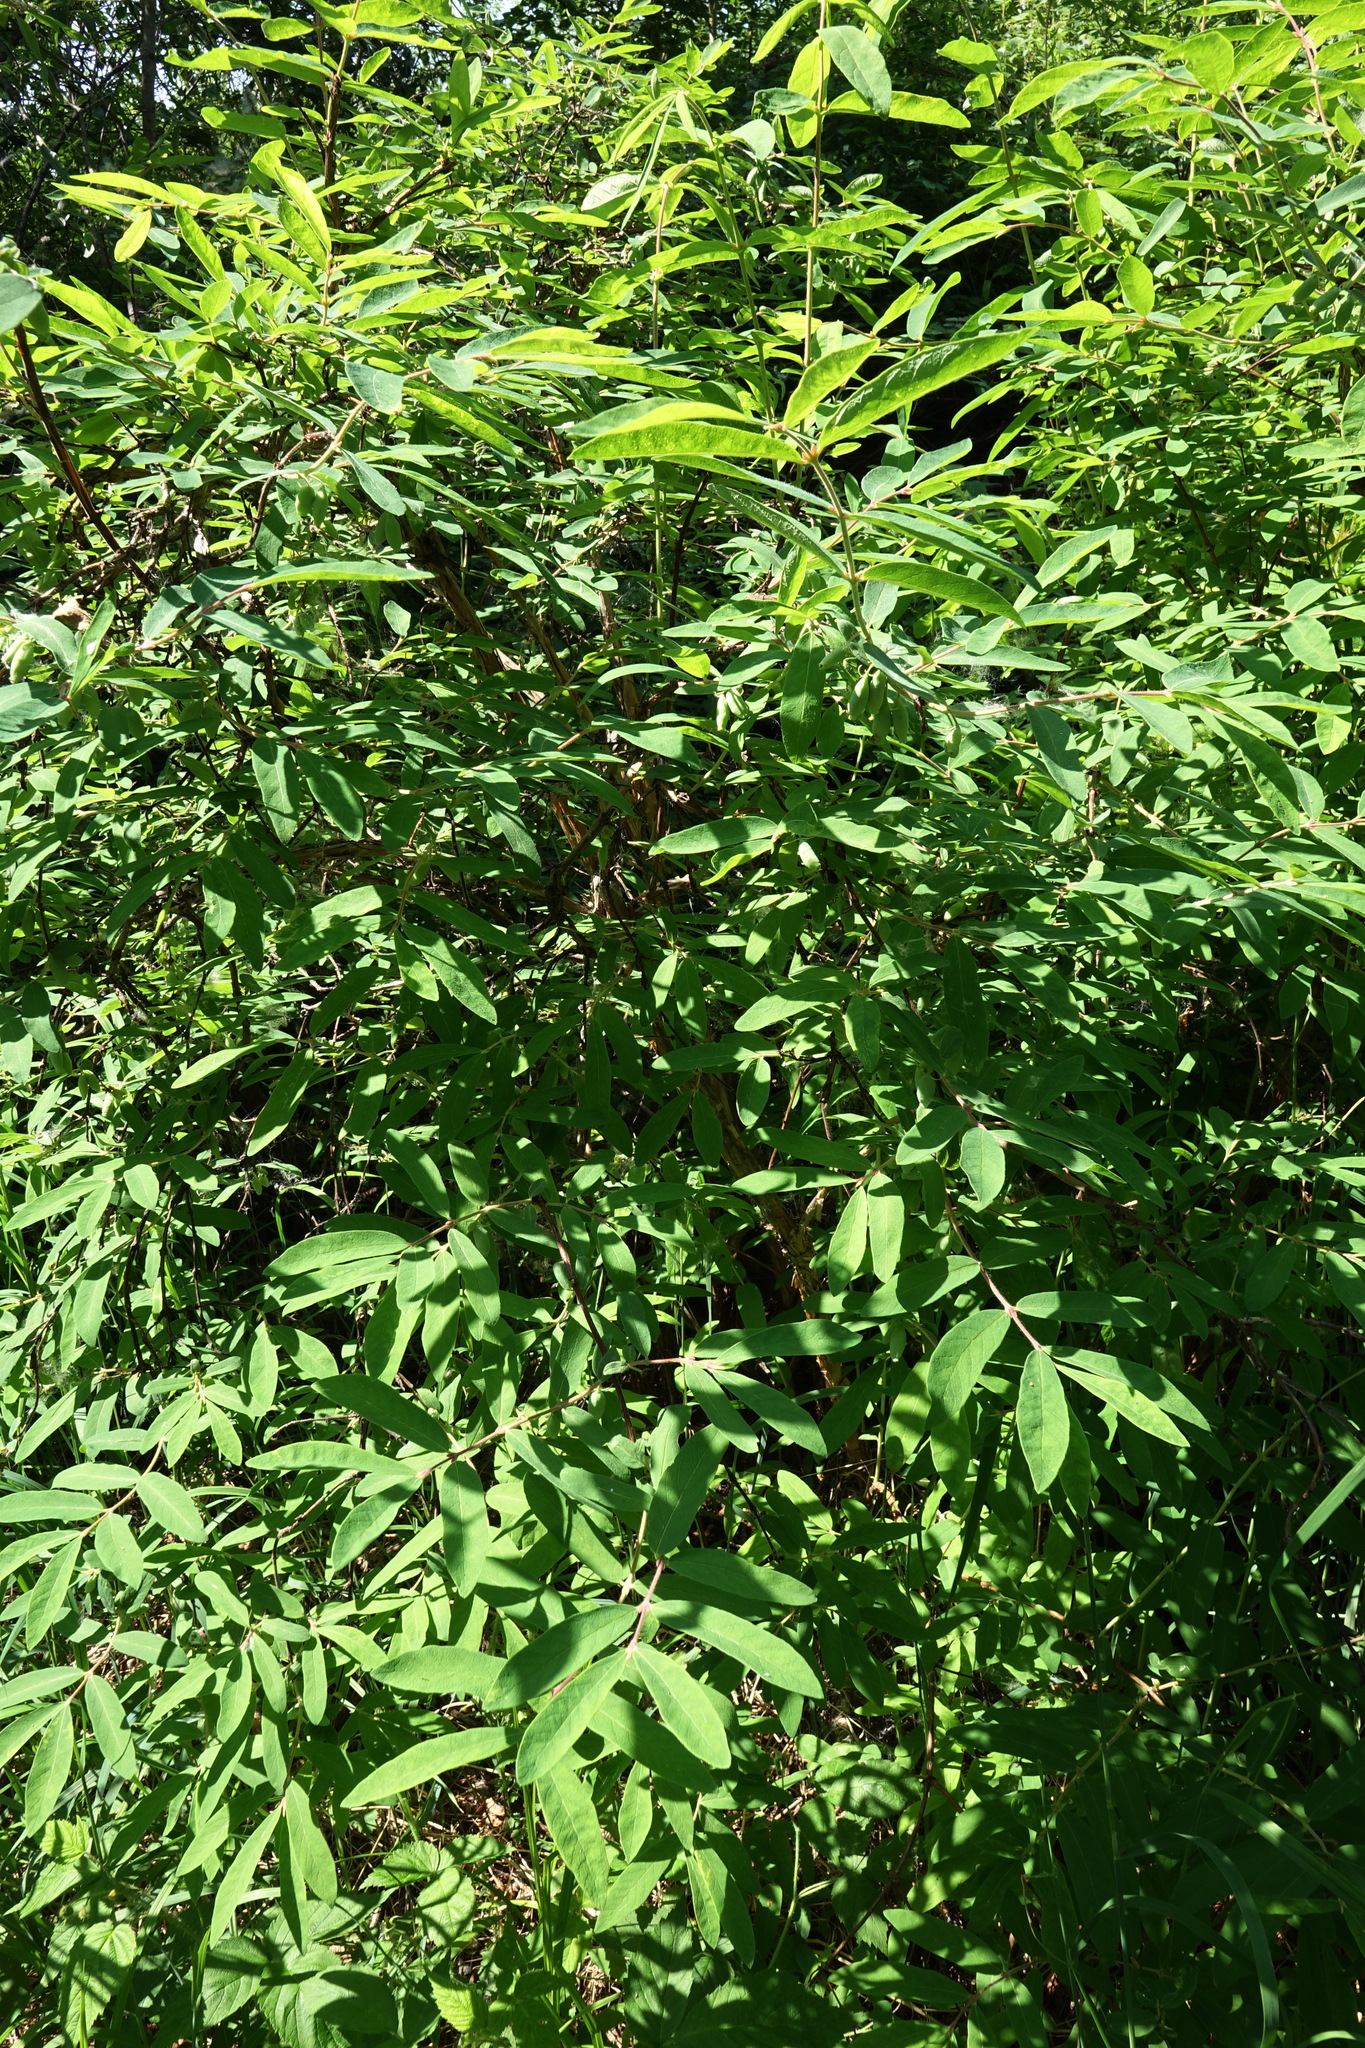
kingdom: Plantae
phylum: Tracheophyta
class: Magnoliopsida
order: Dipsacales
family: Caprifoliaceae
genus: Lonicera
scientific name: Lonicera caerulea
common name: Blue honeysuckle
